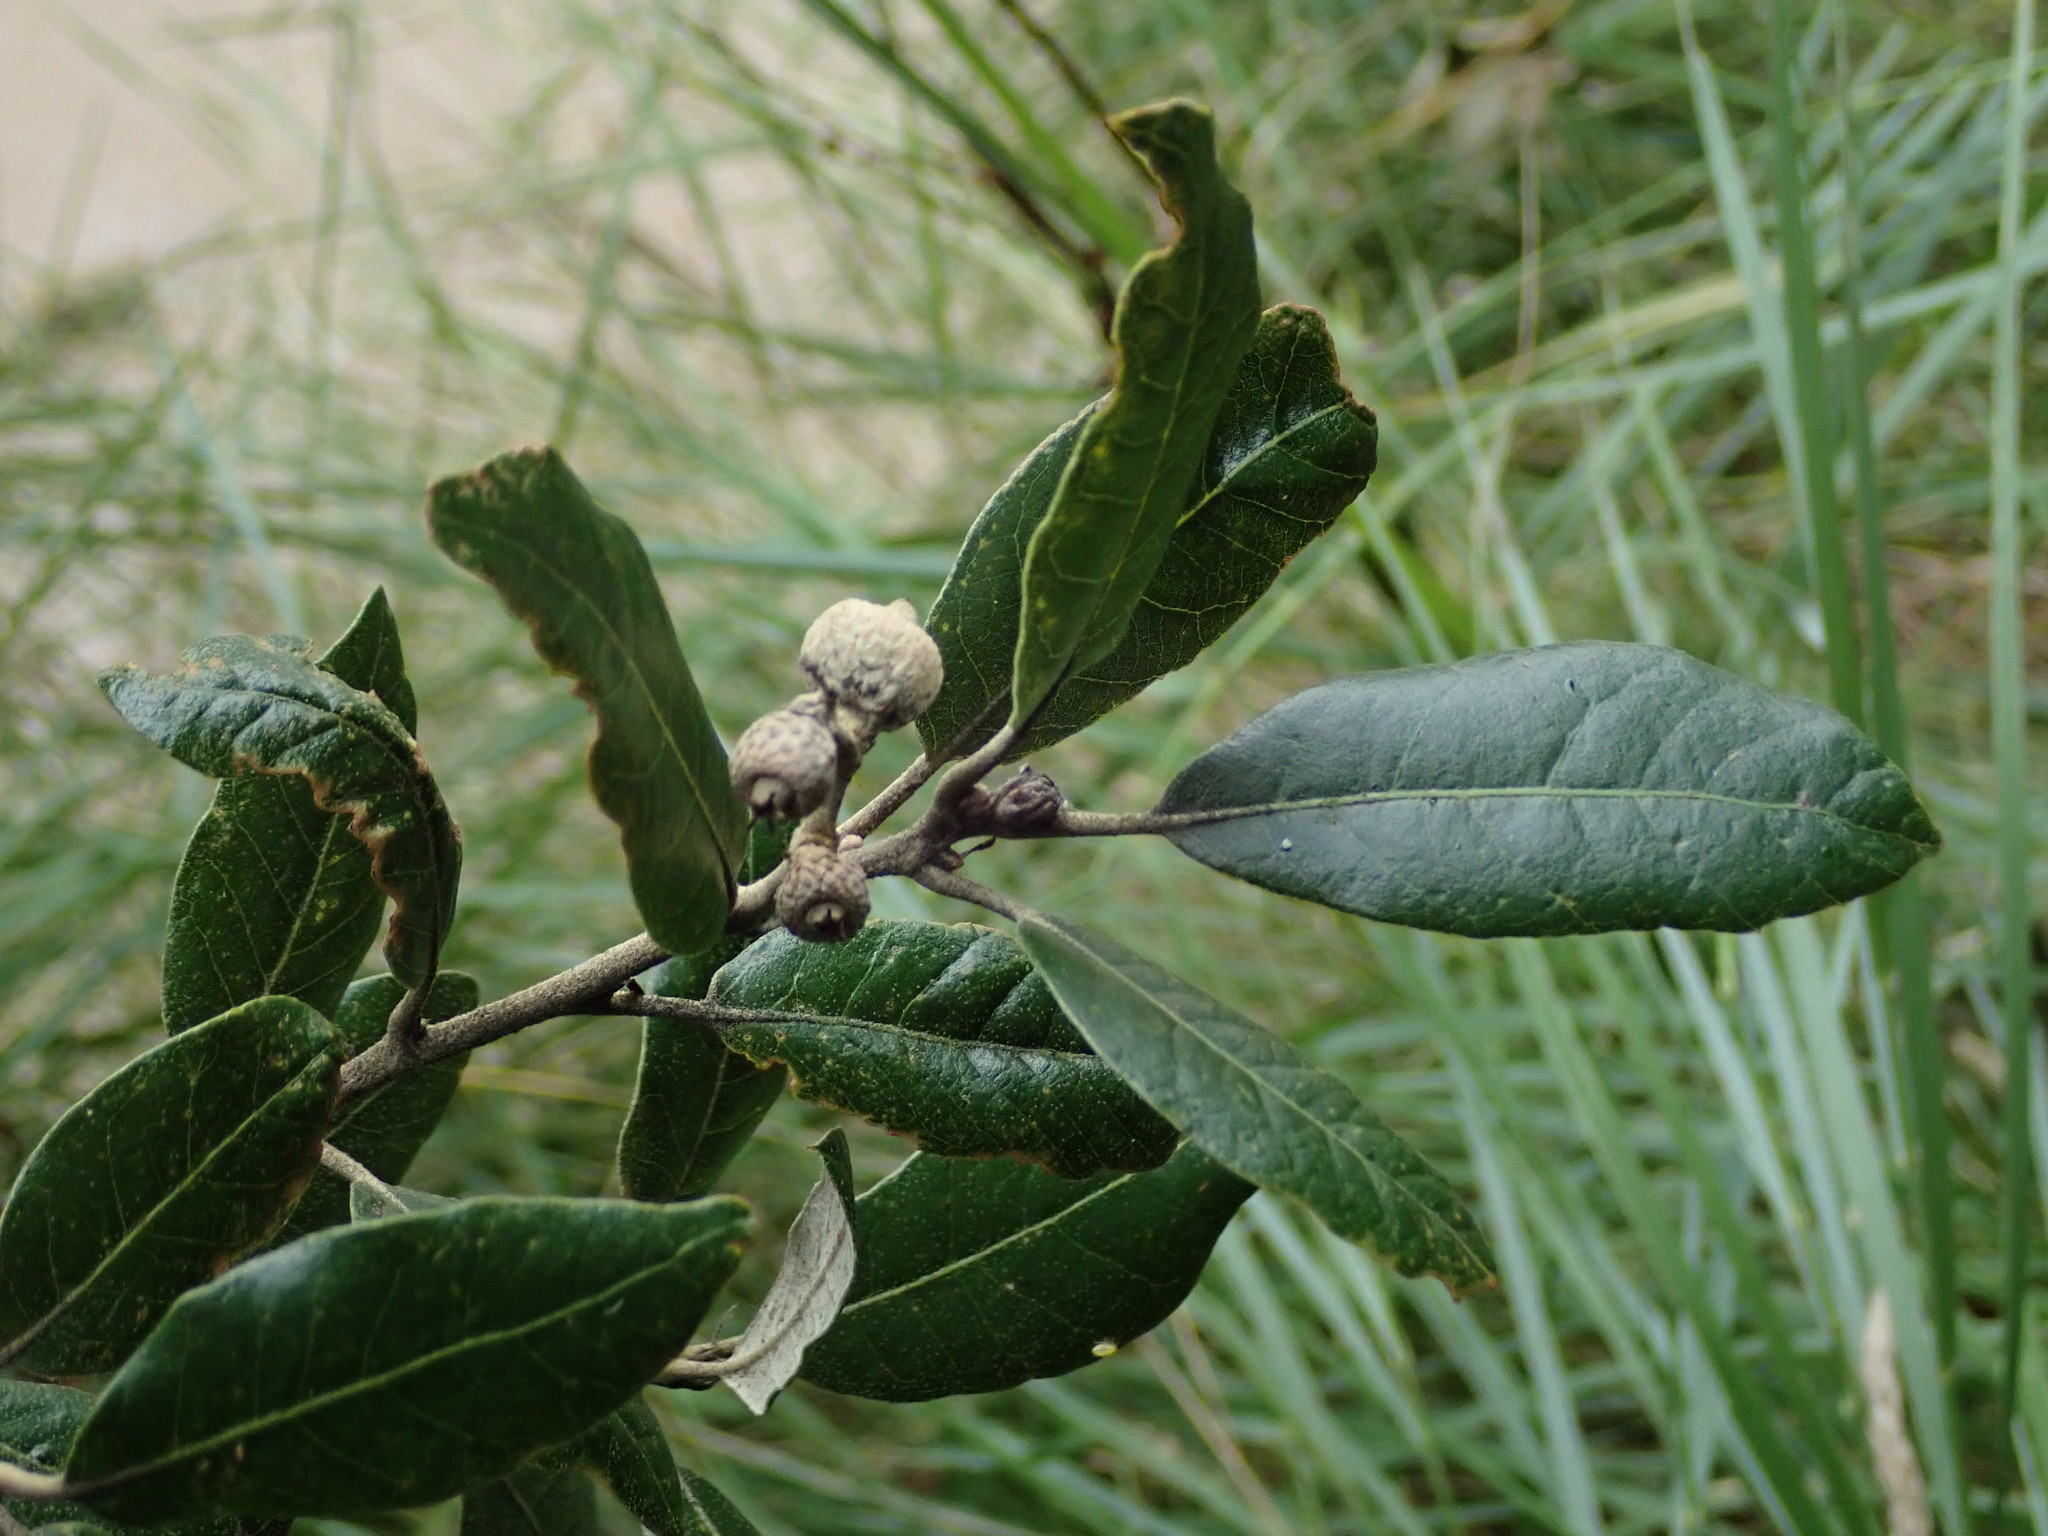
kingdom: Plantae
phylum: Tracheophyta
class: Magnoliopsida
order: Fagales
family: Fagaceae
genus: Quercus
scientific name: Quercus ilex
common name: Evergreen oak
